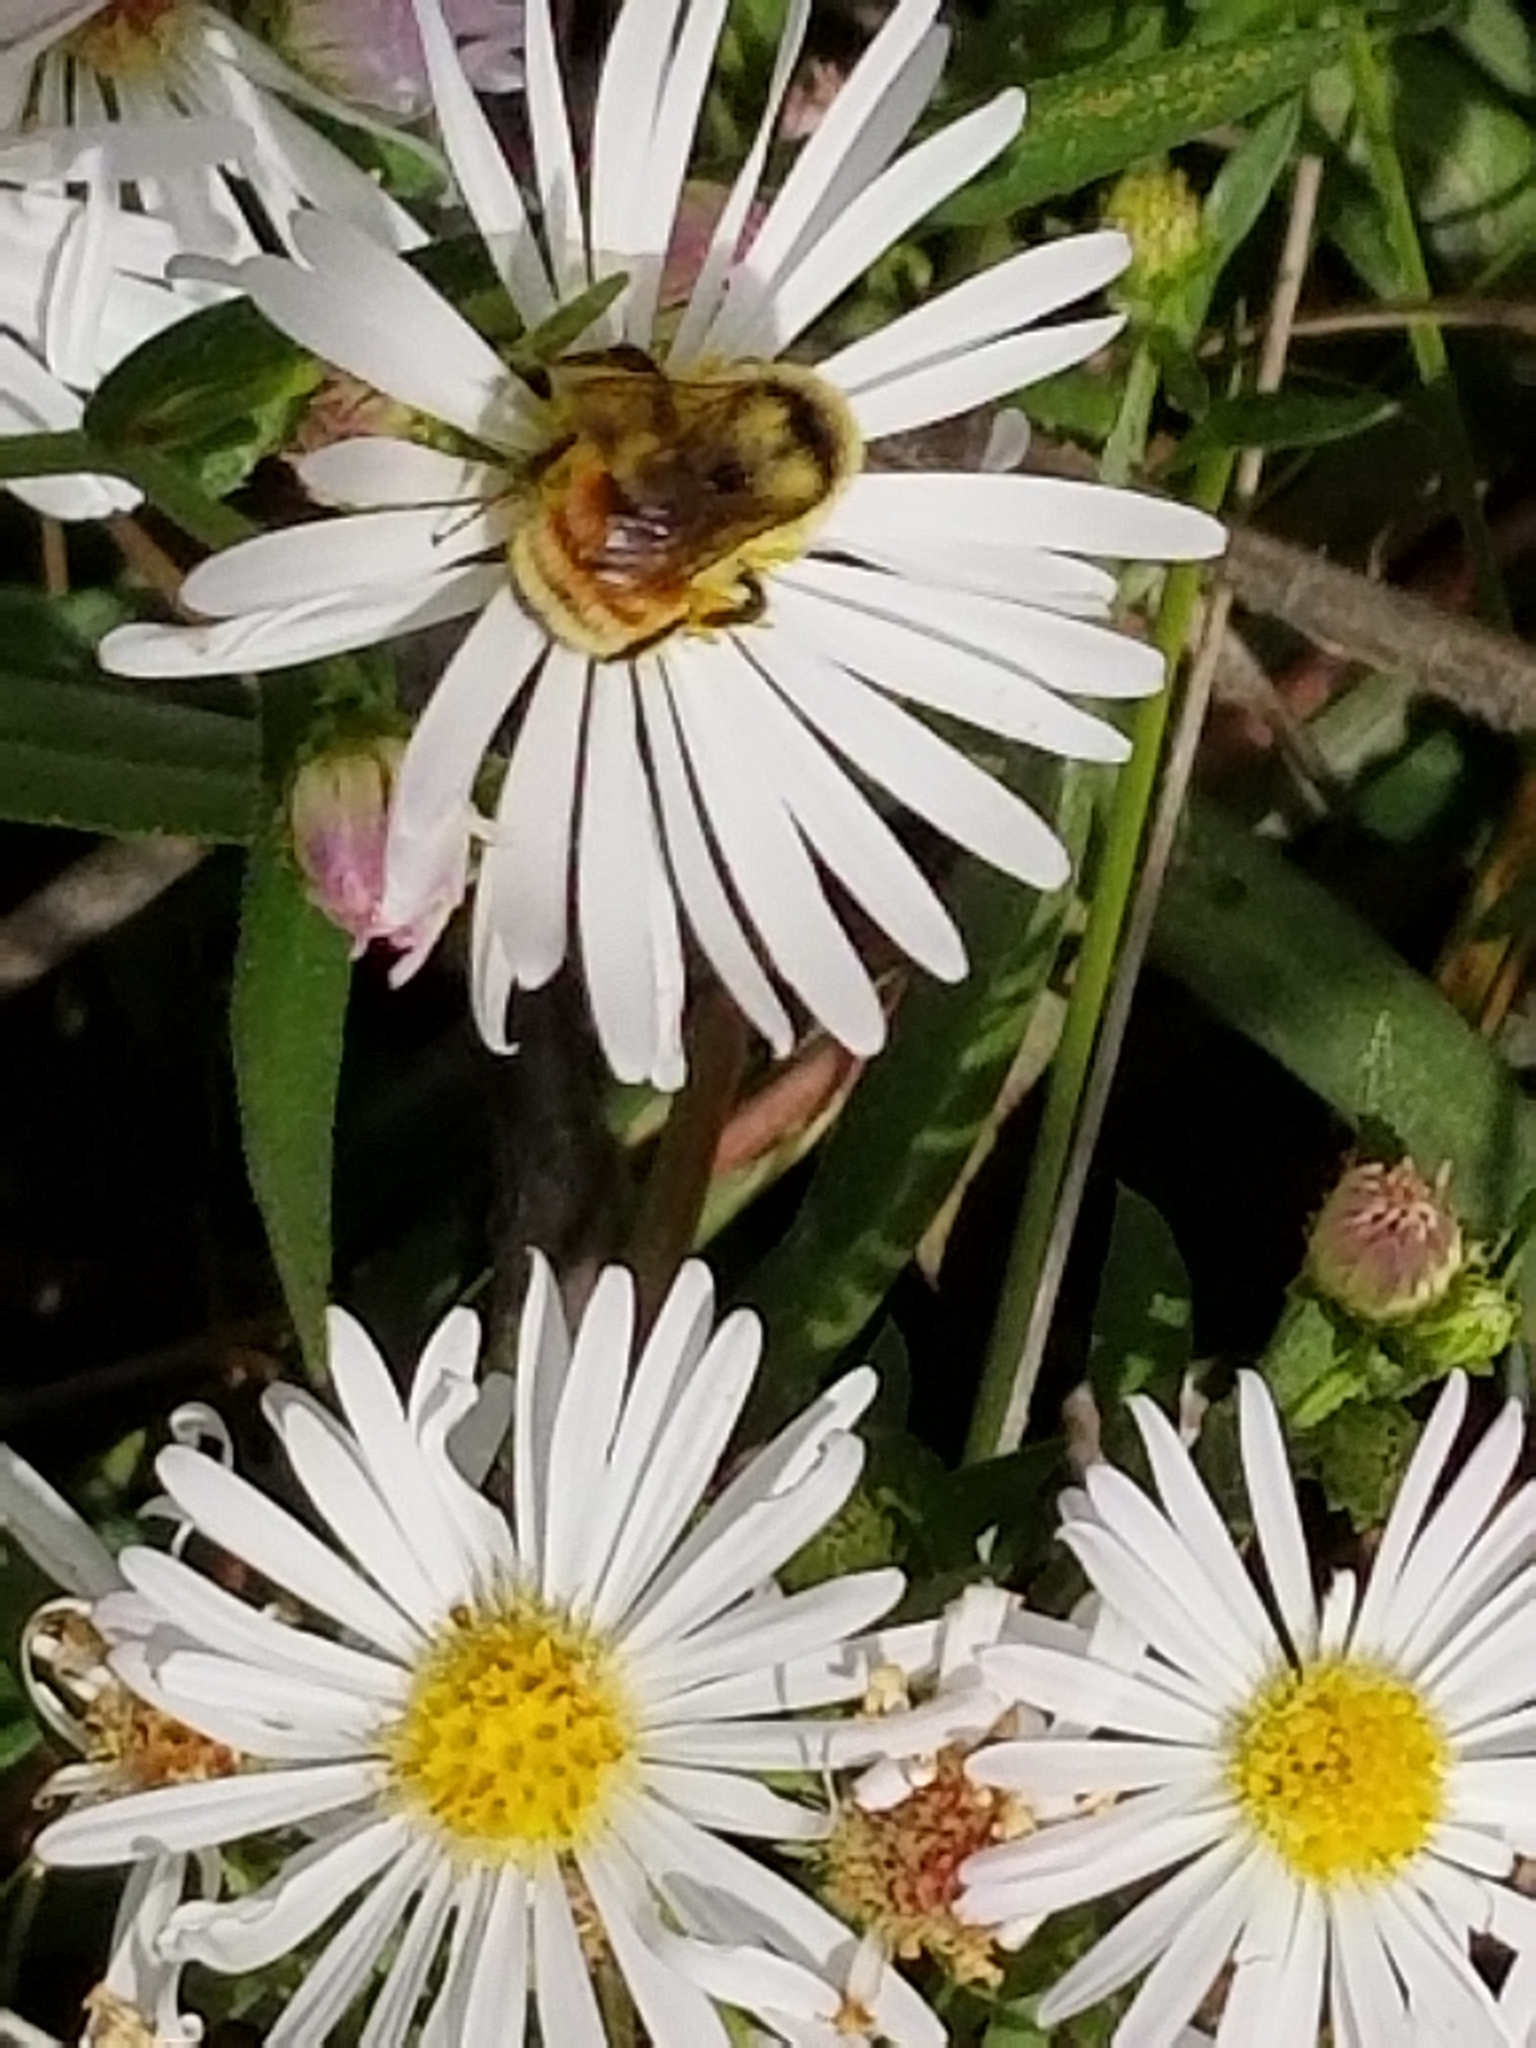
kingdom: Animalia
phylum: Arthropoda
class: Insecta
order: Hymenoptera
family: Apidae
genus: Bombus
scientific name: Bombus huntii
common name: Hunt bumble bee
